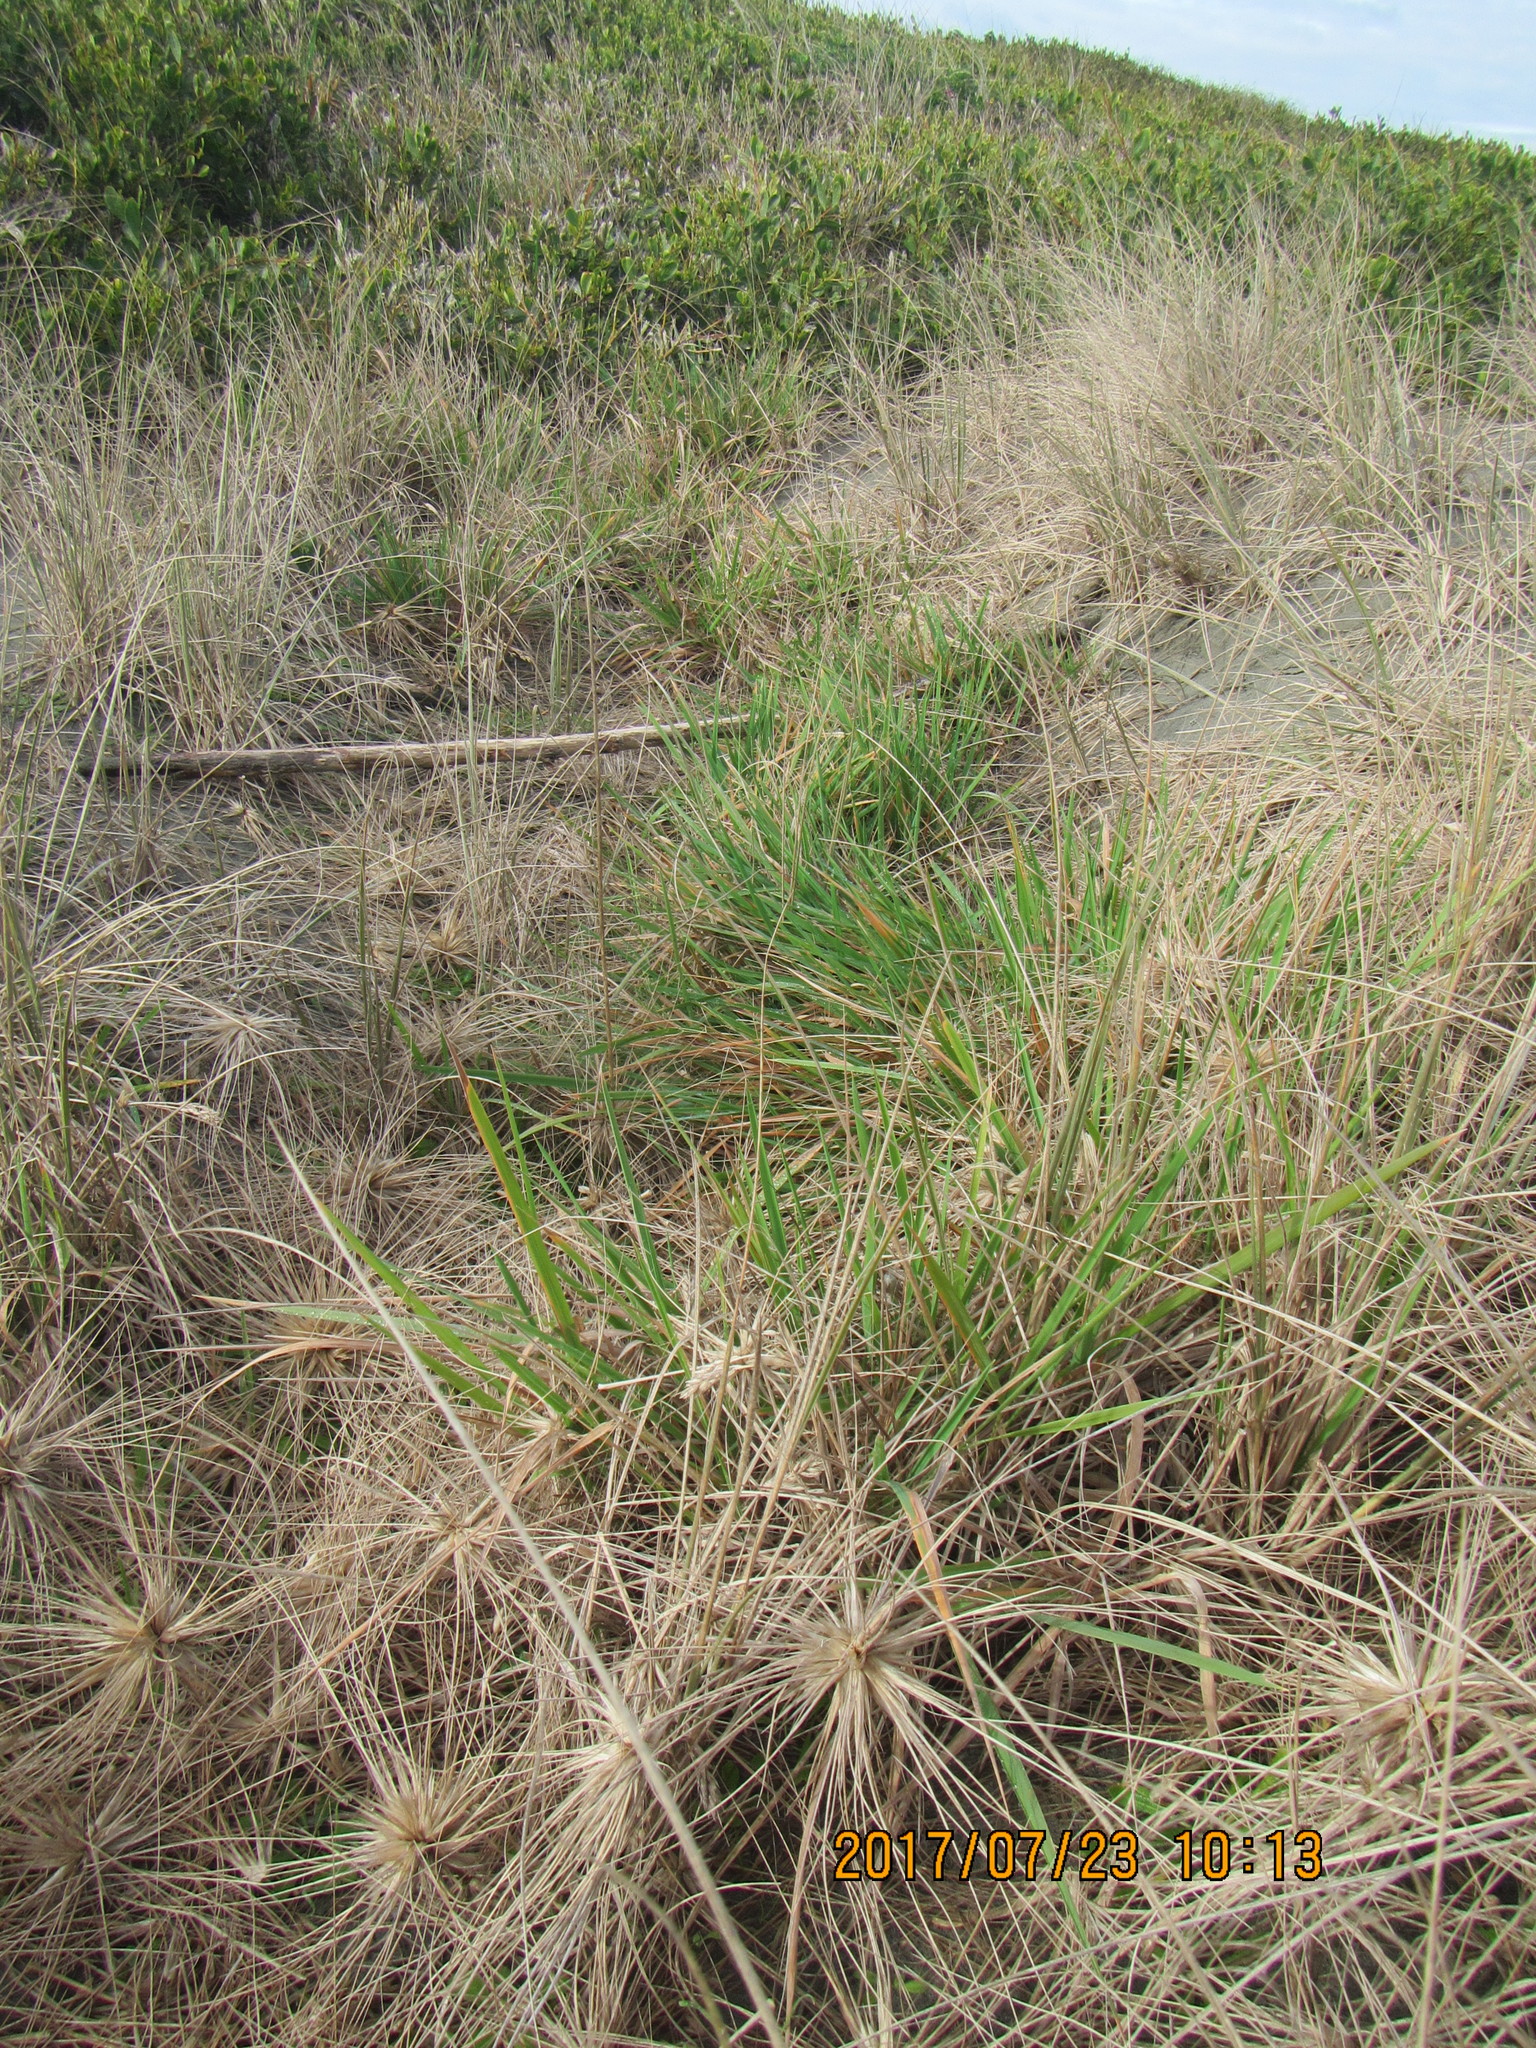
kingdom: Plantae
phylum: Tracheophyta
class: Liliopsida
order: Poales
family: Poaceae
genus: Lachnagrostis
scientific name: Lachnagrostis billardierei
